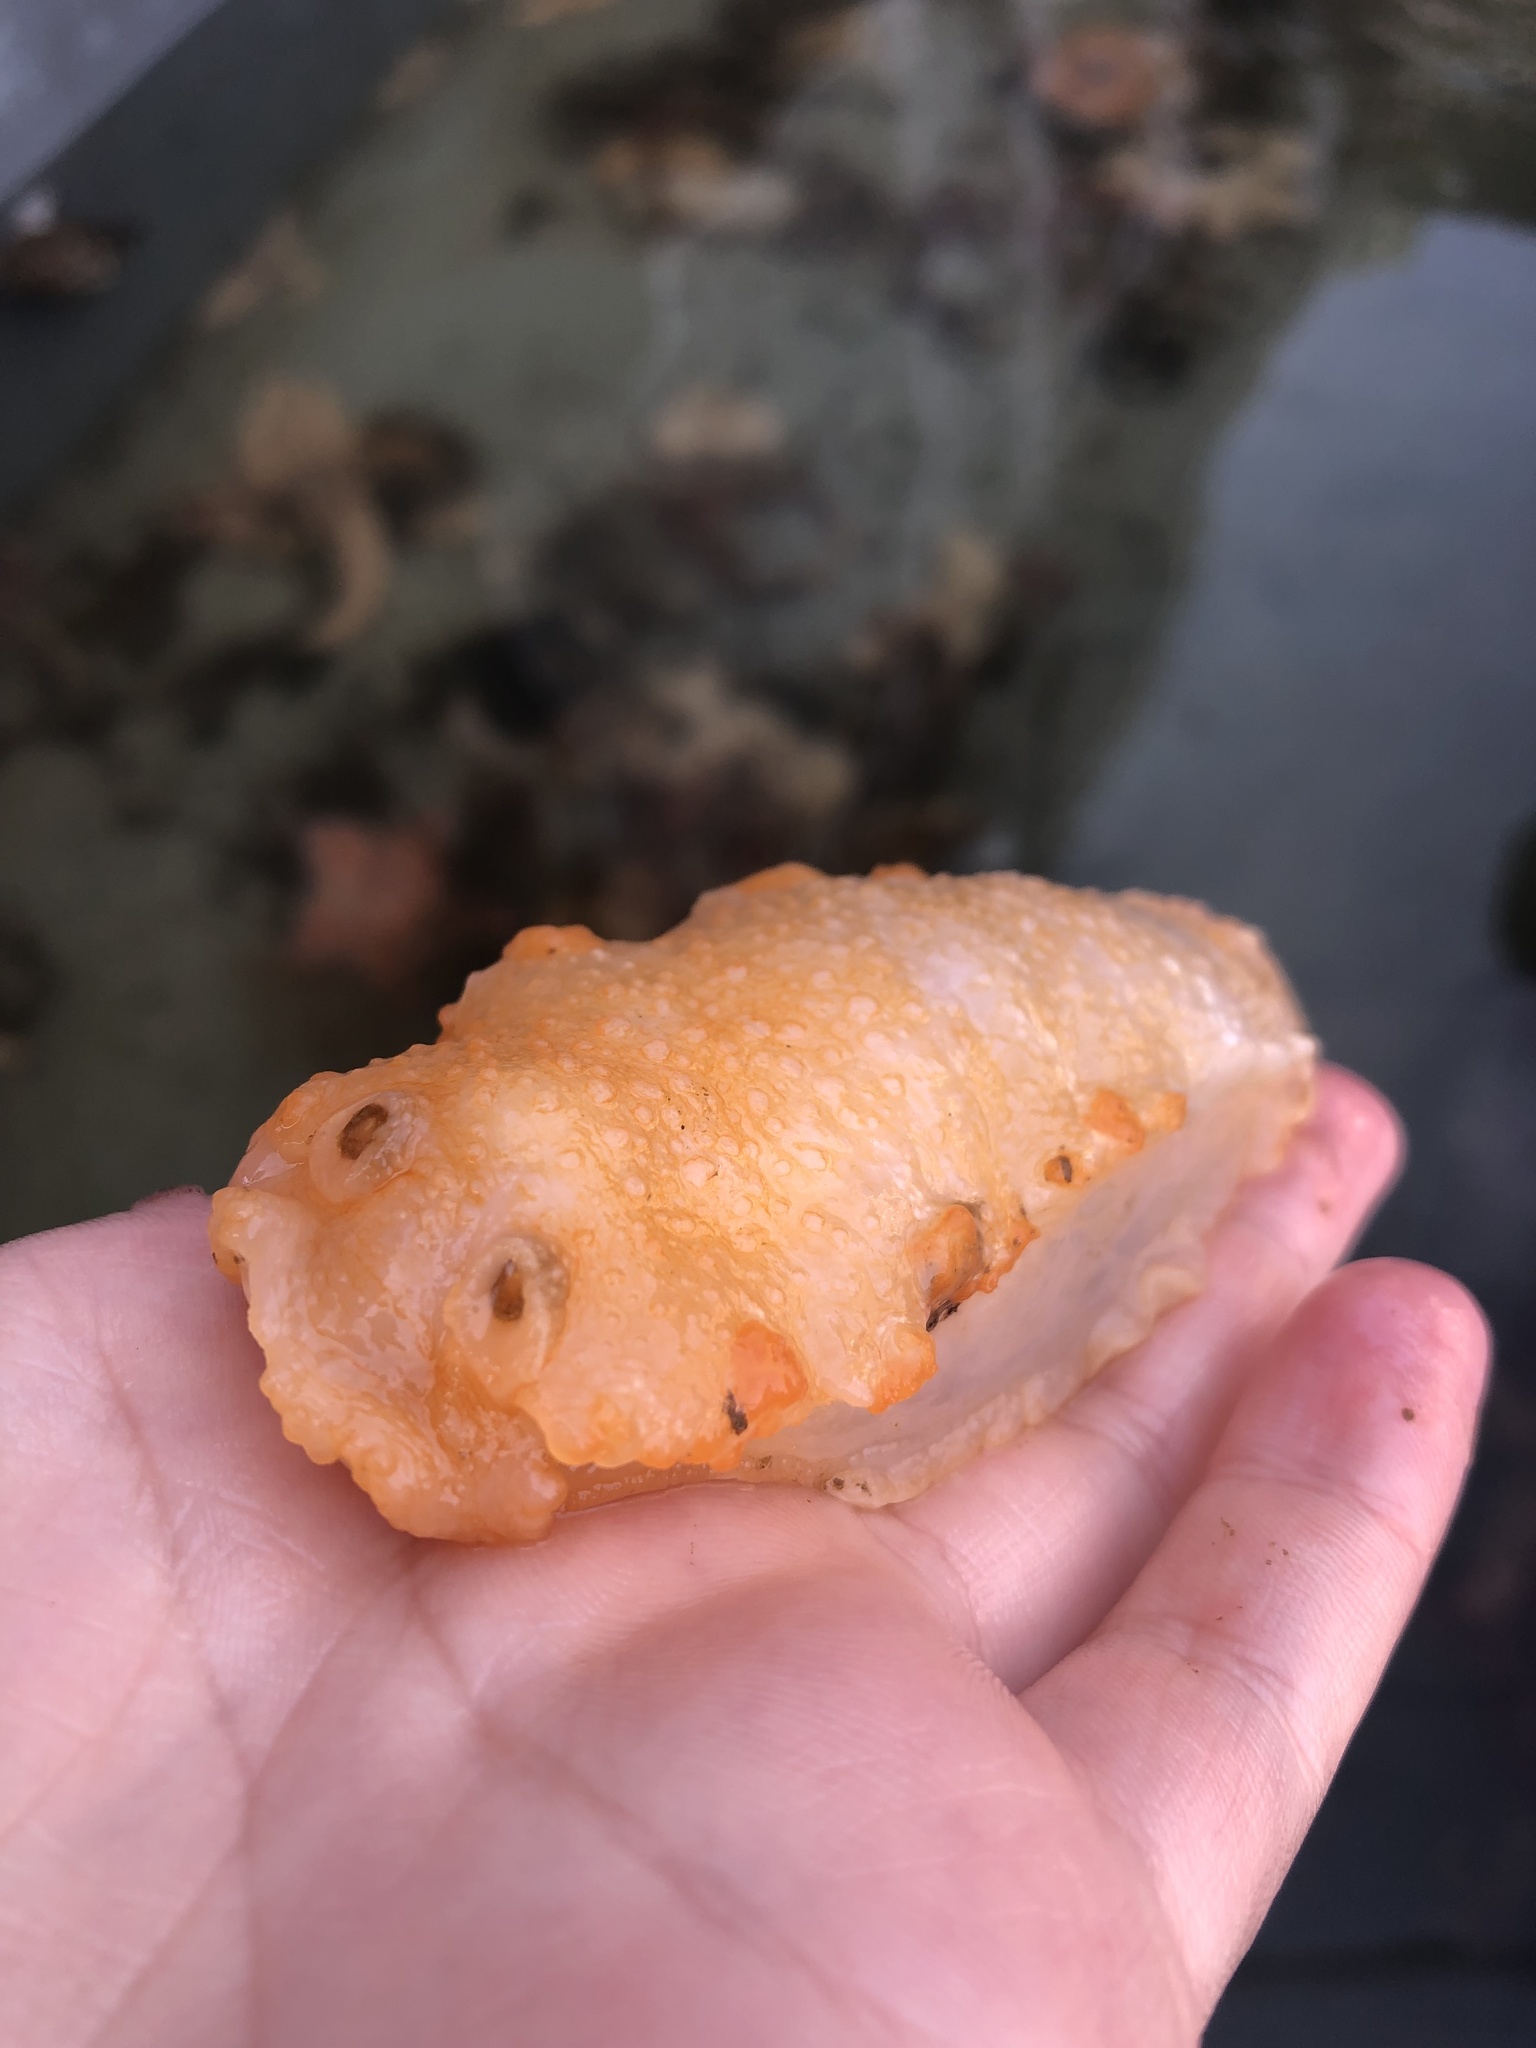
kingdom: Animalia
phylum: Mollusca
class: Gastropoda
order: Nudibranchia
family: Tritoniidae
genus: Tritonia
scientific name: Tritonia hombergii
